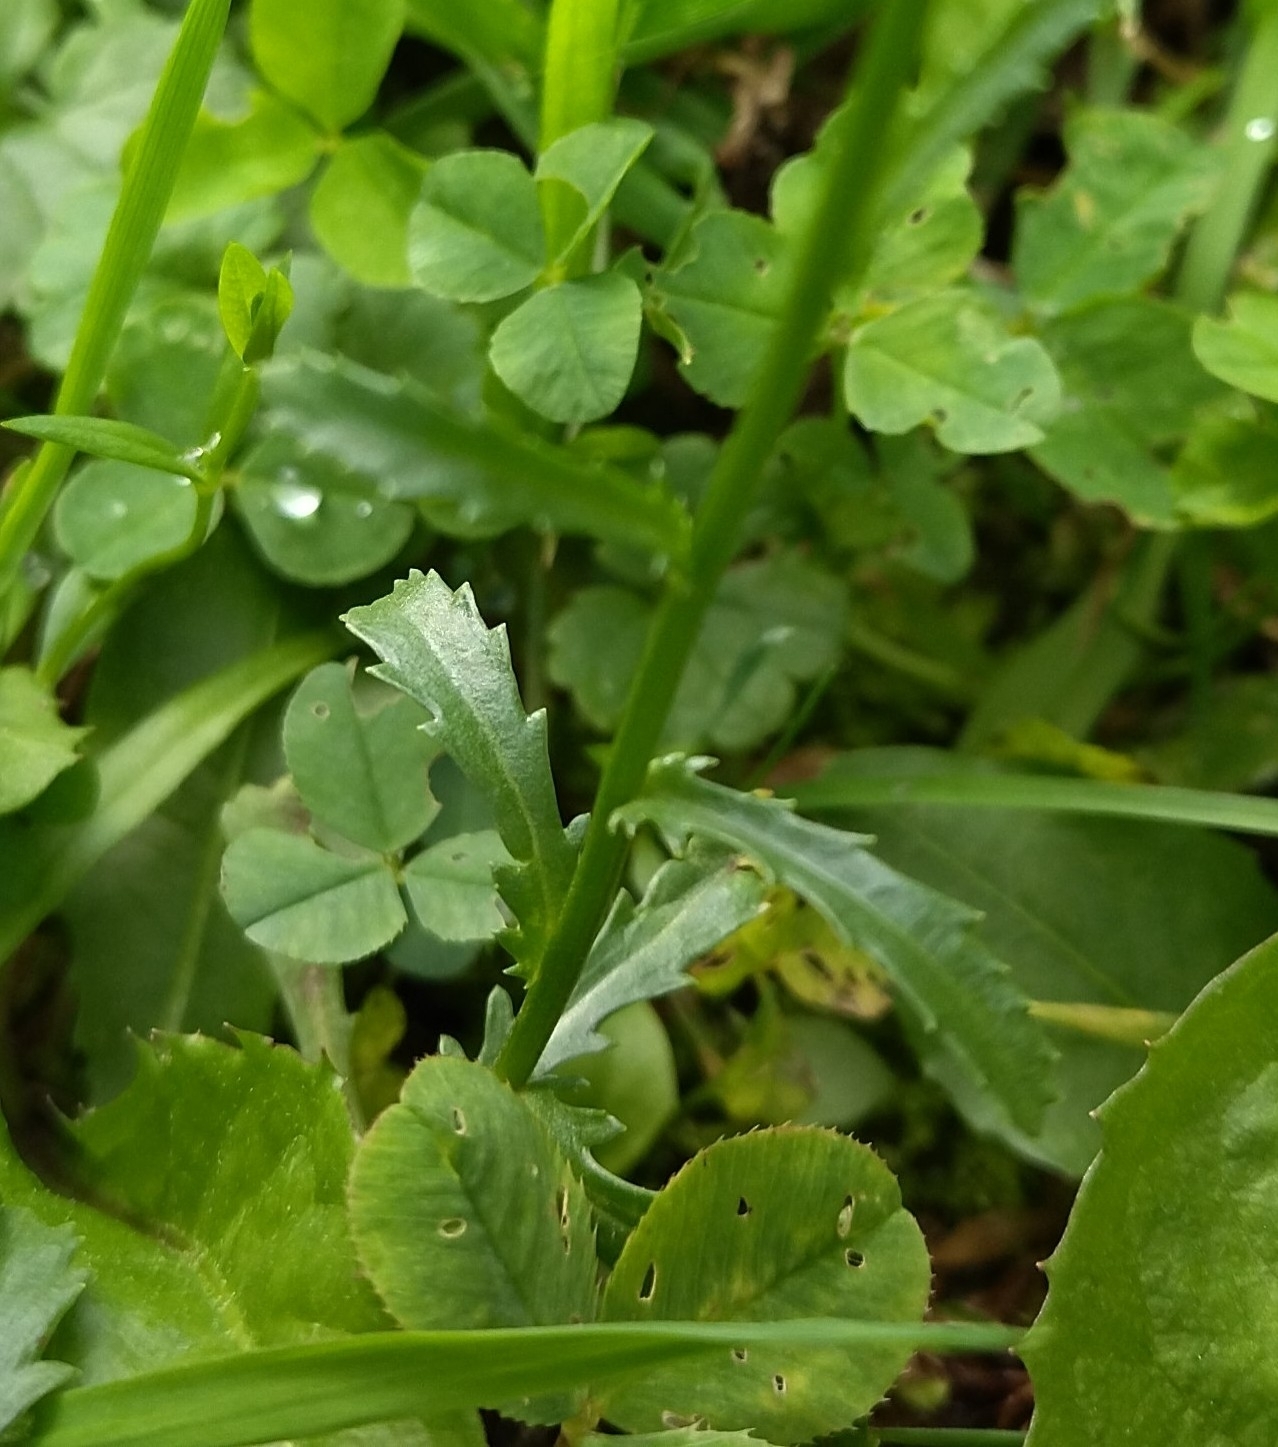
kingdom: Plantae
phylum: Tracheophyta
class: Magnoliopsida
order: Asterales
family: Asteraceae
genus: Leucanthemum
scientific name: Leucanthemum vulgare
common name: Oxeye daisy
